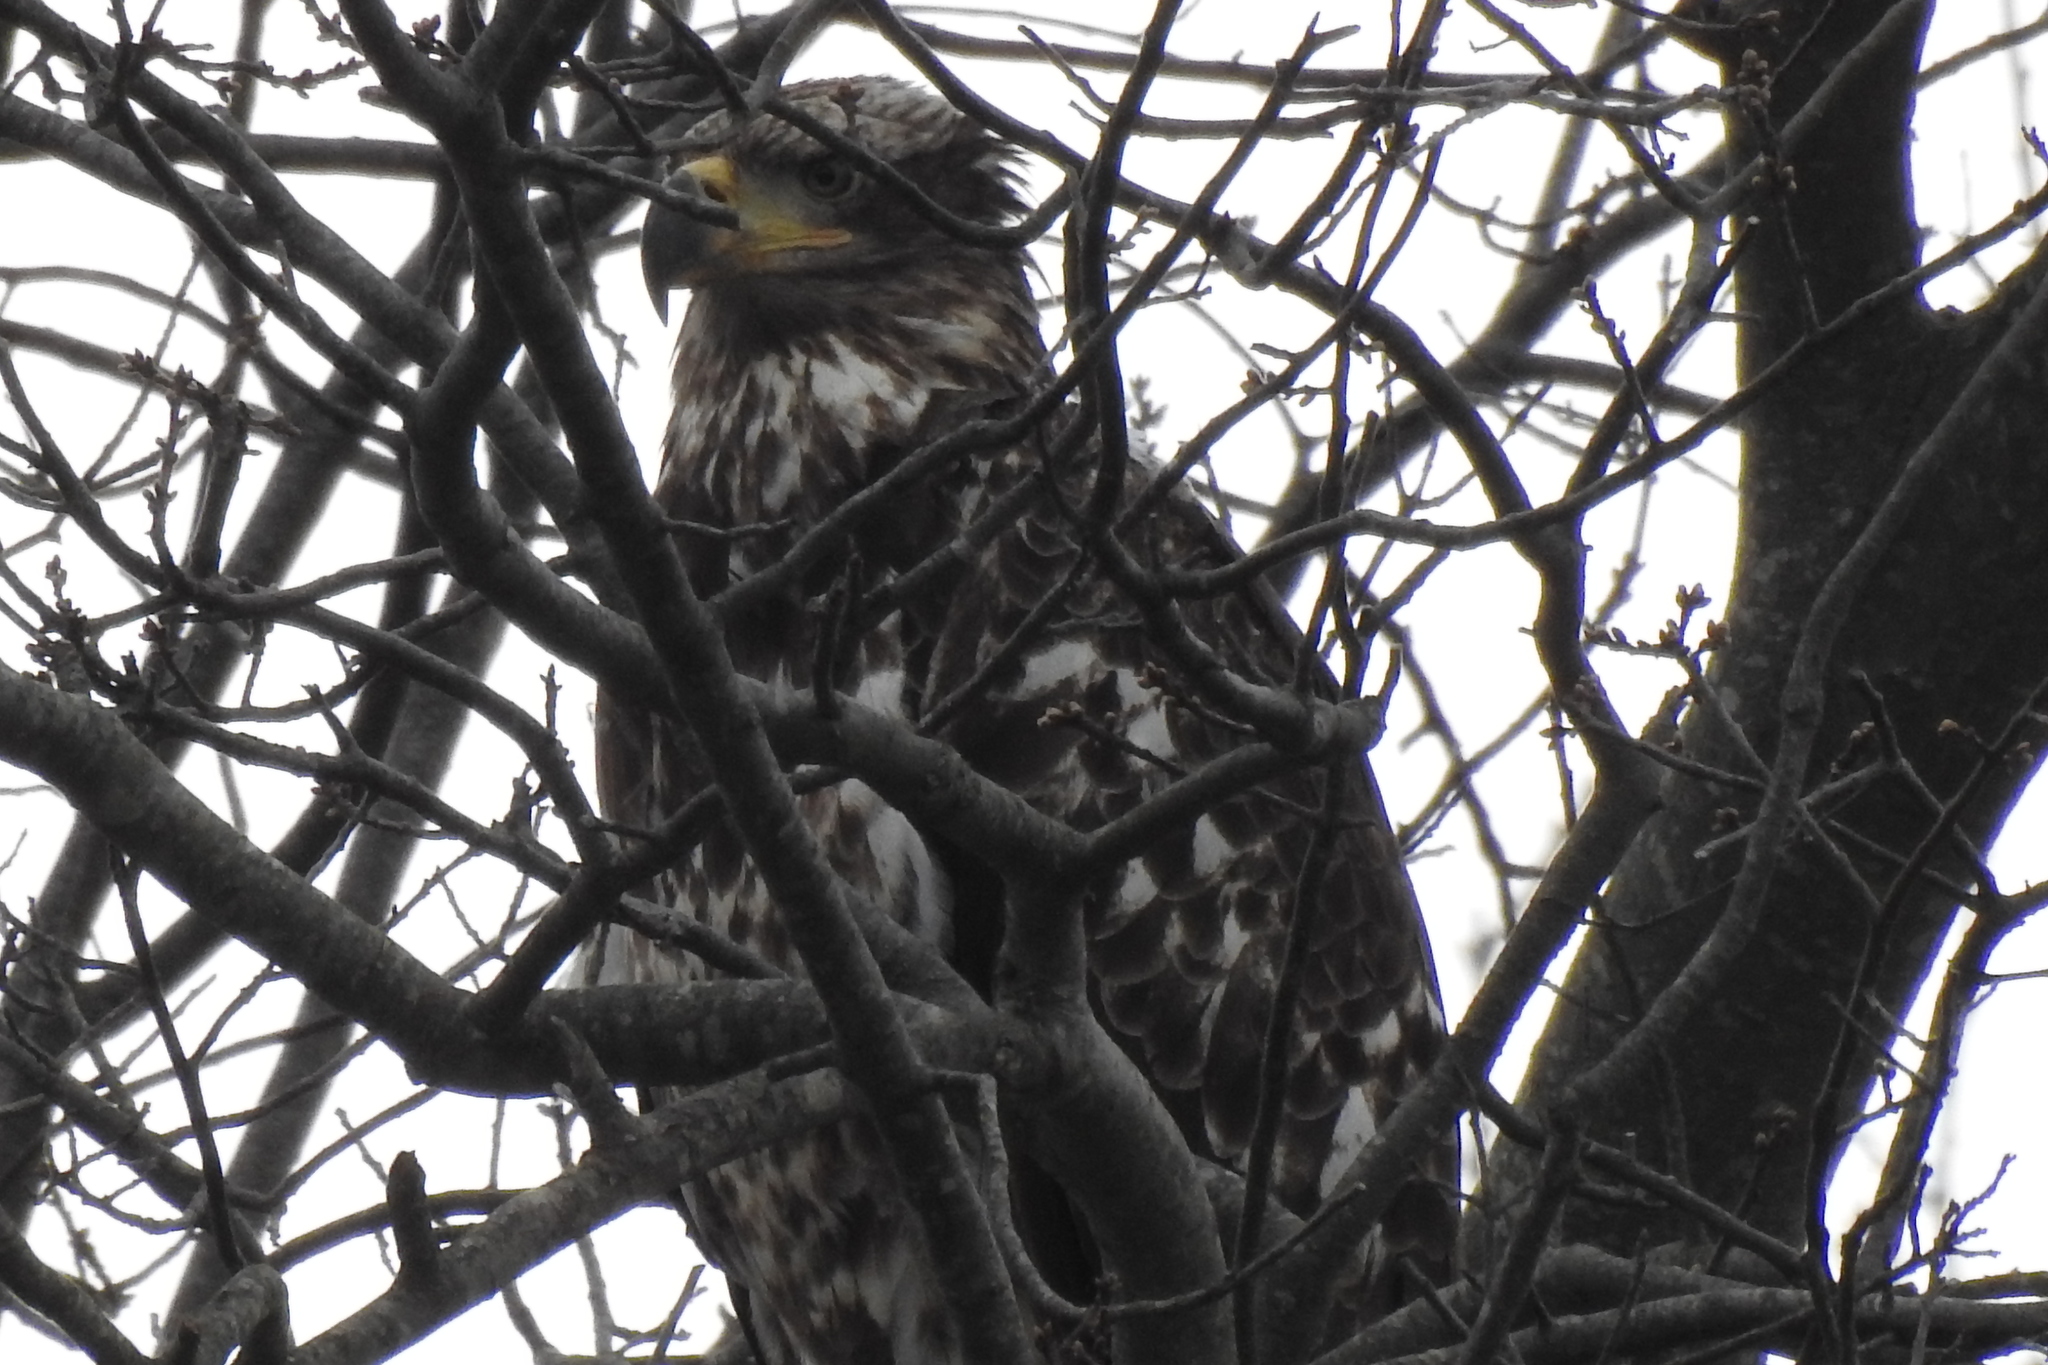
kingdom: Animalia
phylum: Chordata
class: Aves
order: Accipitriformes
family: Accipitridae
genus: Haliaeetus
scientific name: Haliaeetus leucocephalus
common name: Bald eagle
